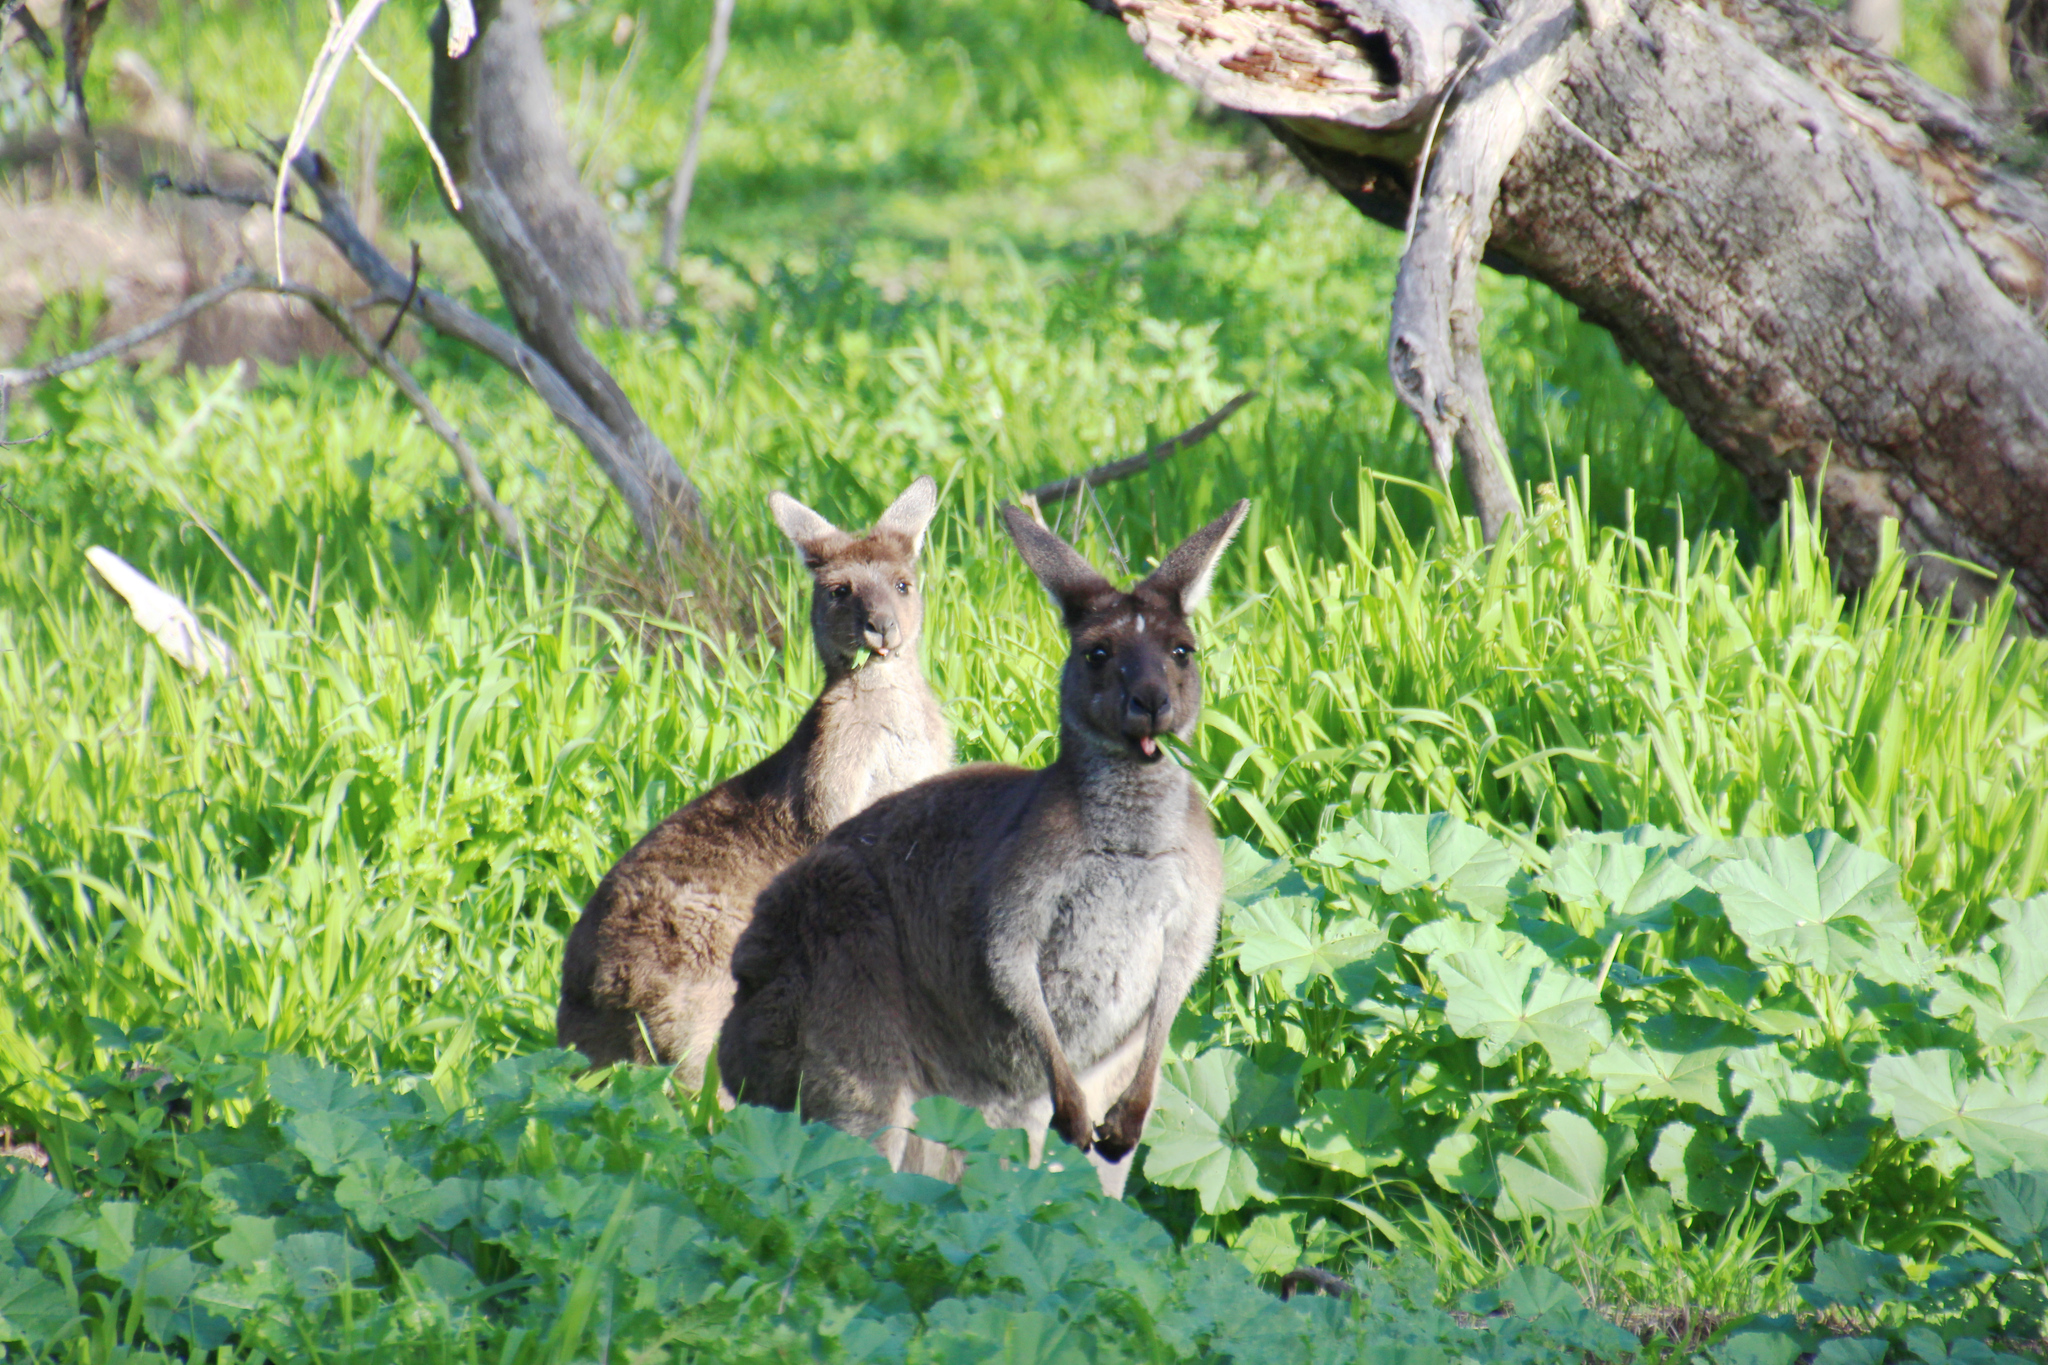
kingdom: Animalia
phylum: Chordata
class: Mammalia
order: Diprotodontia
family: Macropodidae
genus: Macropus
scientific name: Macropus fuliginosus
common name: Western grey kangaroo
